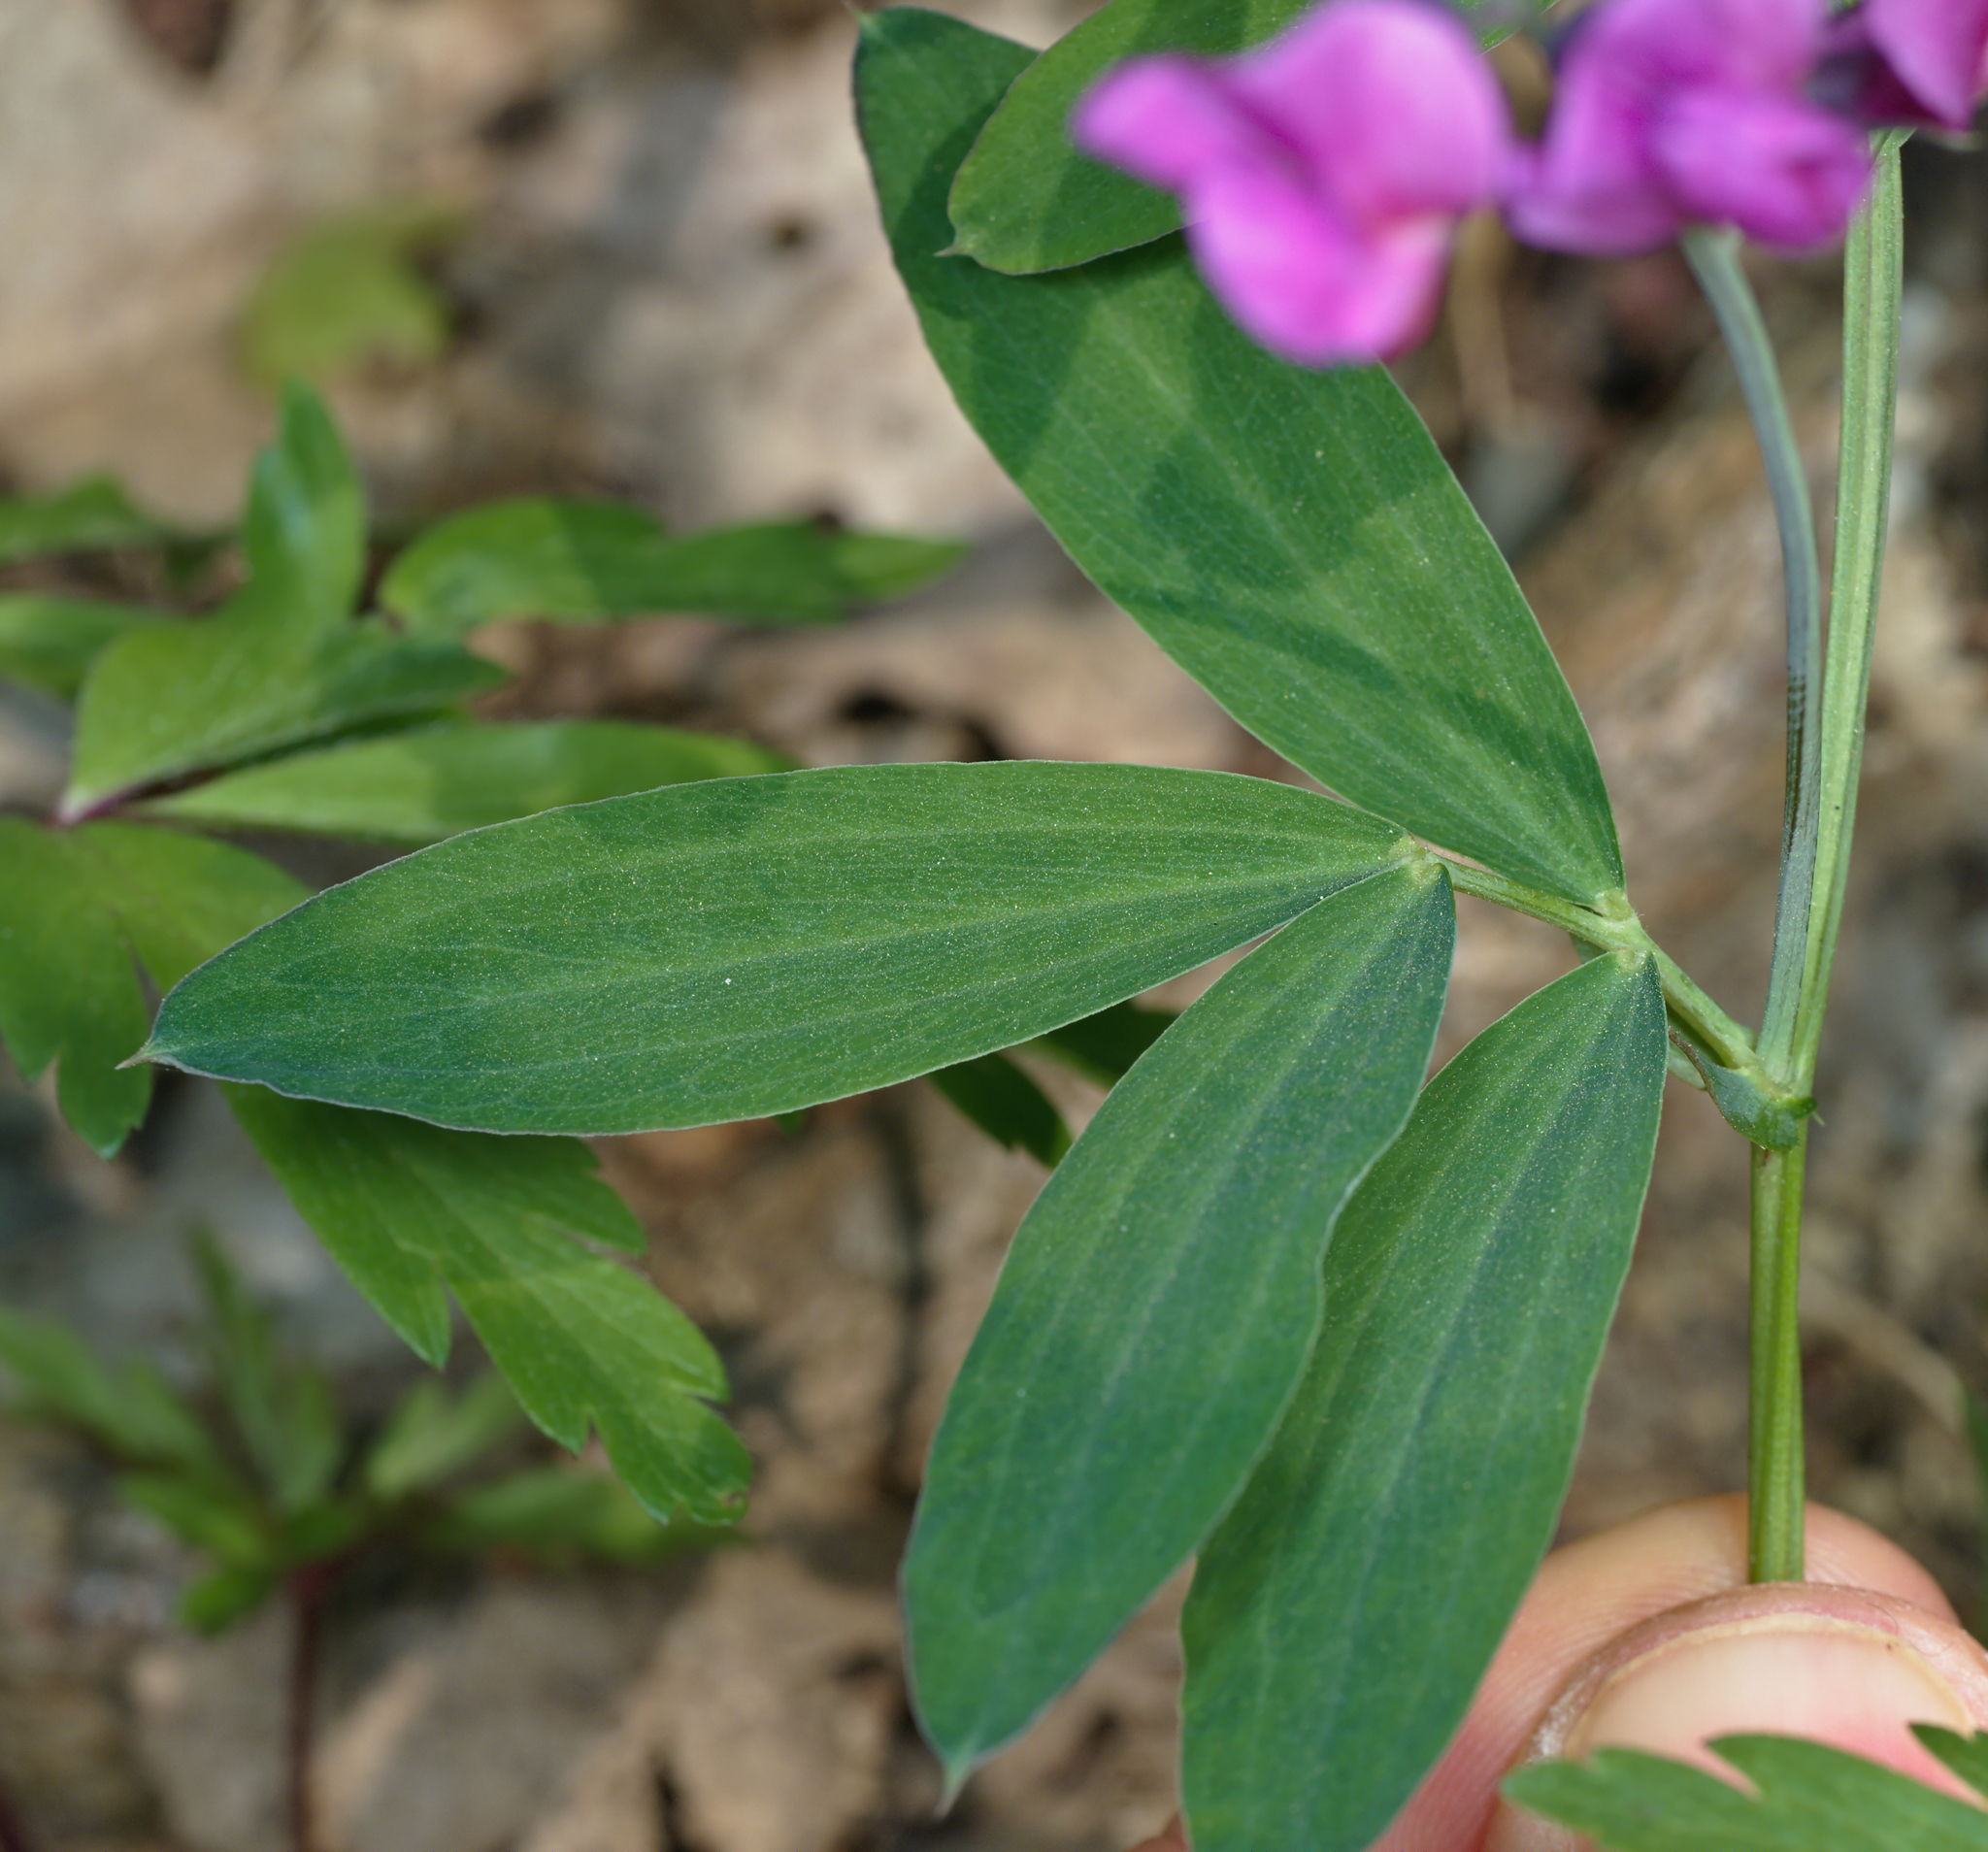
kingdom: Plantae
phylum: Tracheophyta
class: Magnoliopsida
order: Fabales
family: Fabaceae
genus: Lathyrus
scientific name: Lathyrus linifolius
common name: Bitter-vetch
